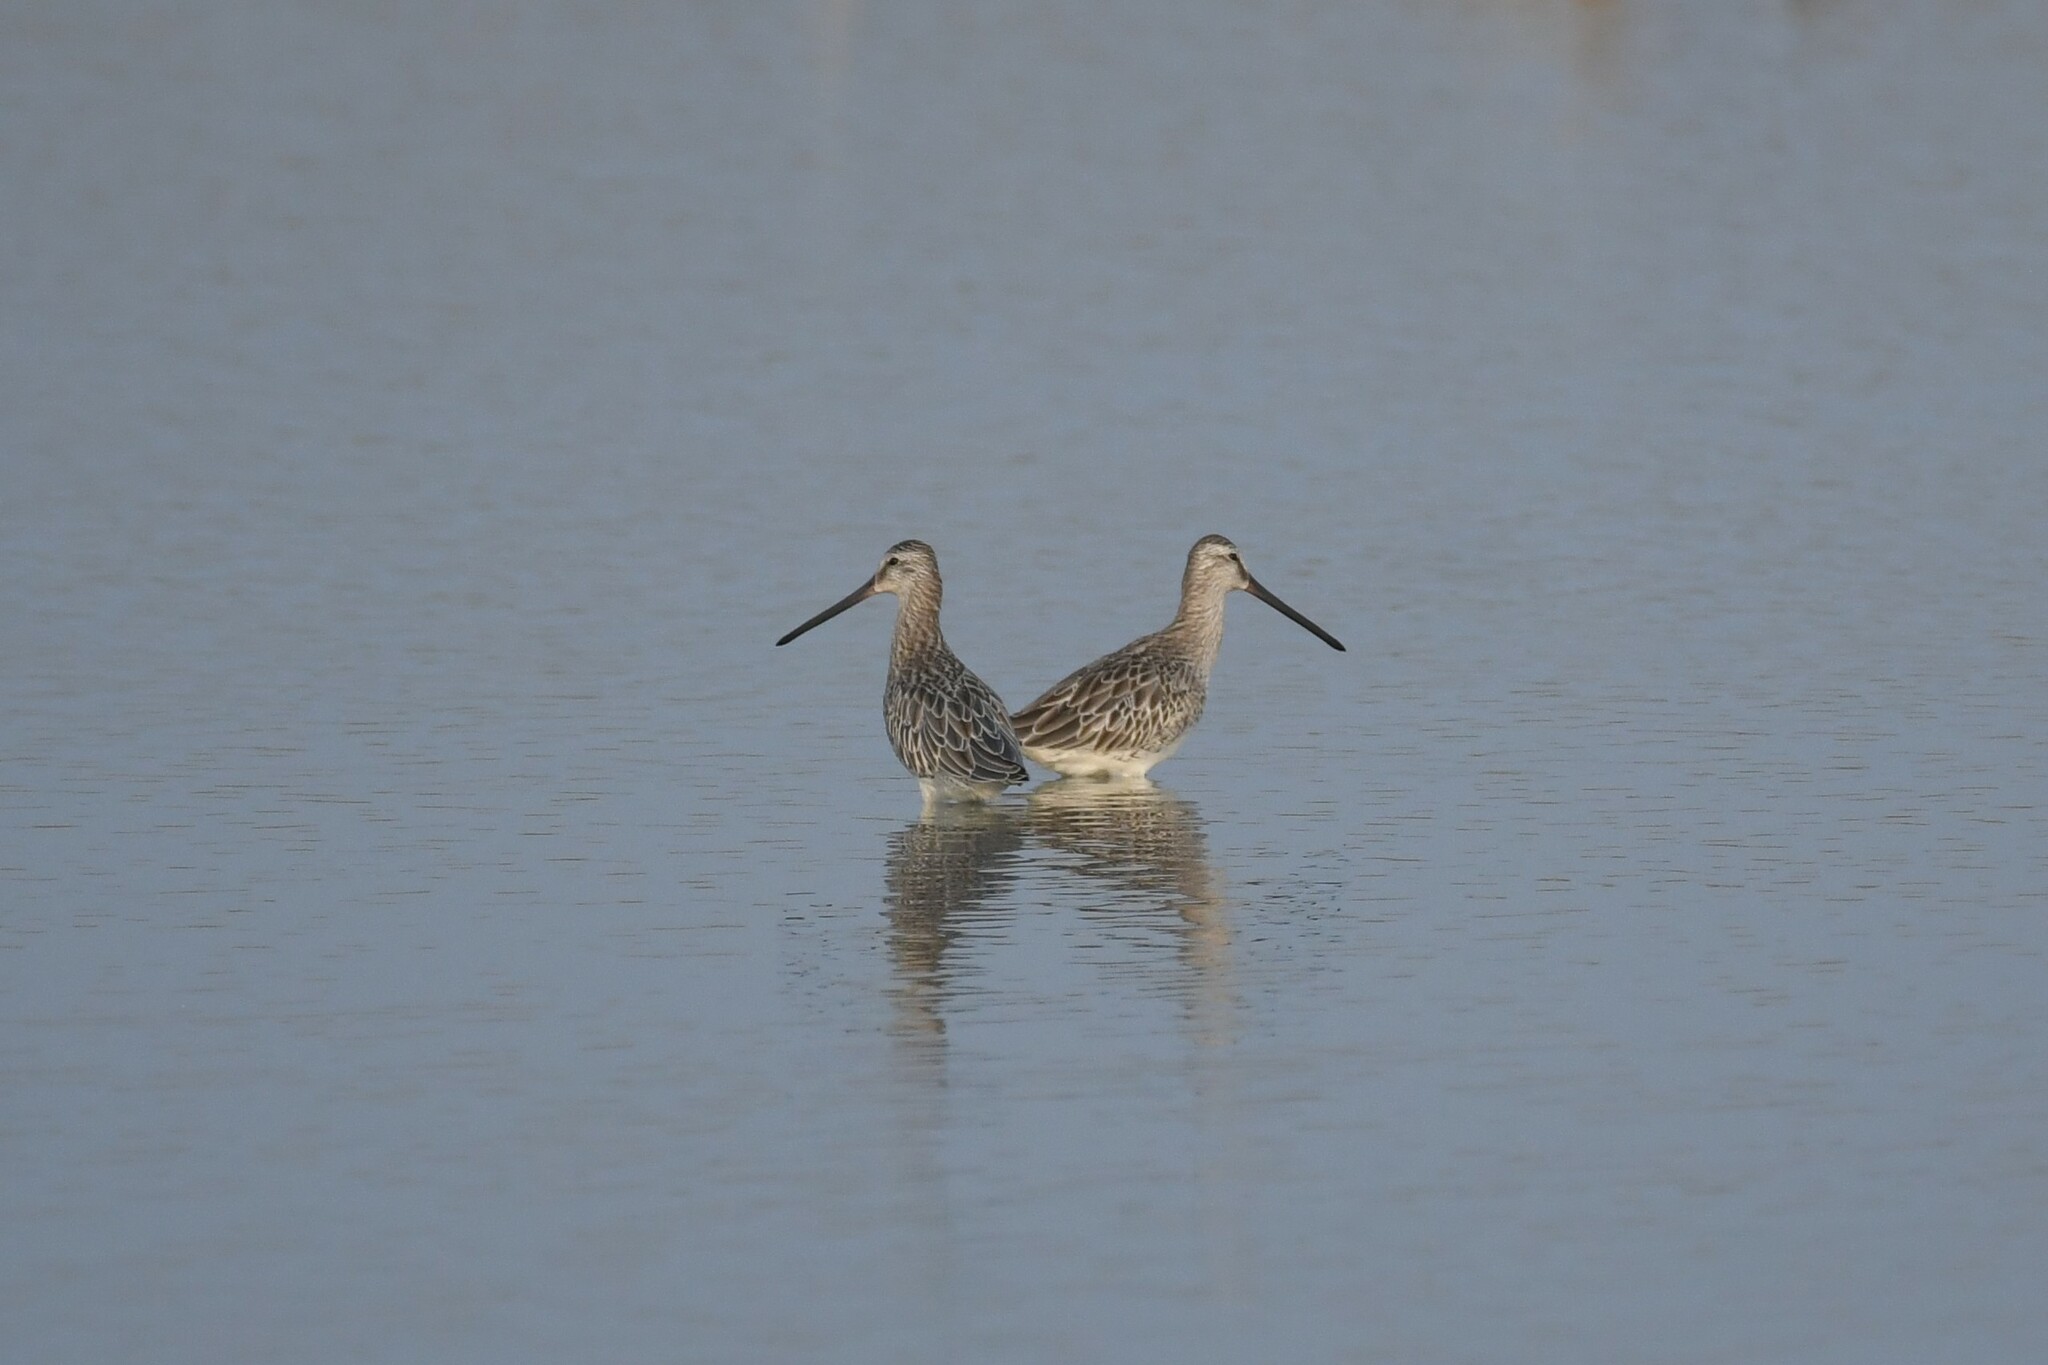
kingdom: Animalia
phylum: Chordata
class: Aves
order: Charadriiformes
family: Scolopacidae
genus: Limnodromus
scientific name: Limnodromus semipalmatus
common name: Asian dowitcher
